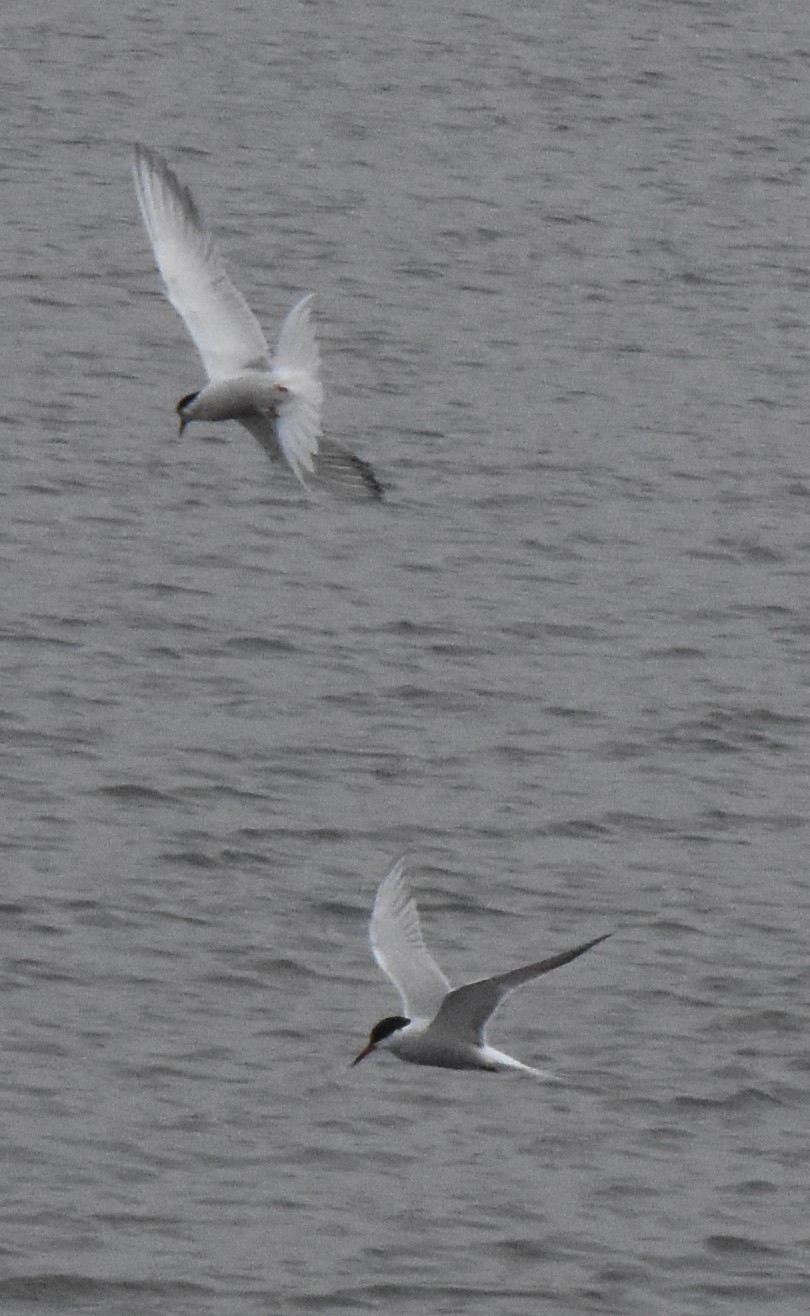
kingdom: Animalia
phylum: Chordata
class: Aves
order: Charadriiformes
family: Laridae
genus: Sterna
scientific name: Sterna hirundo
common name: Common tern
